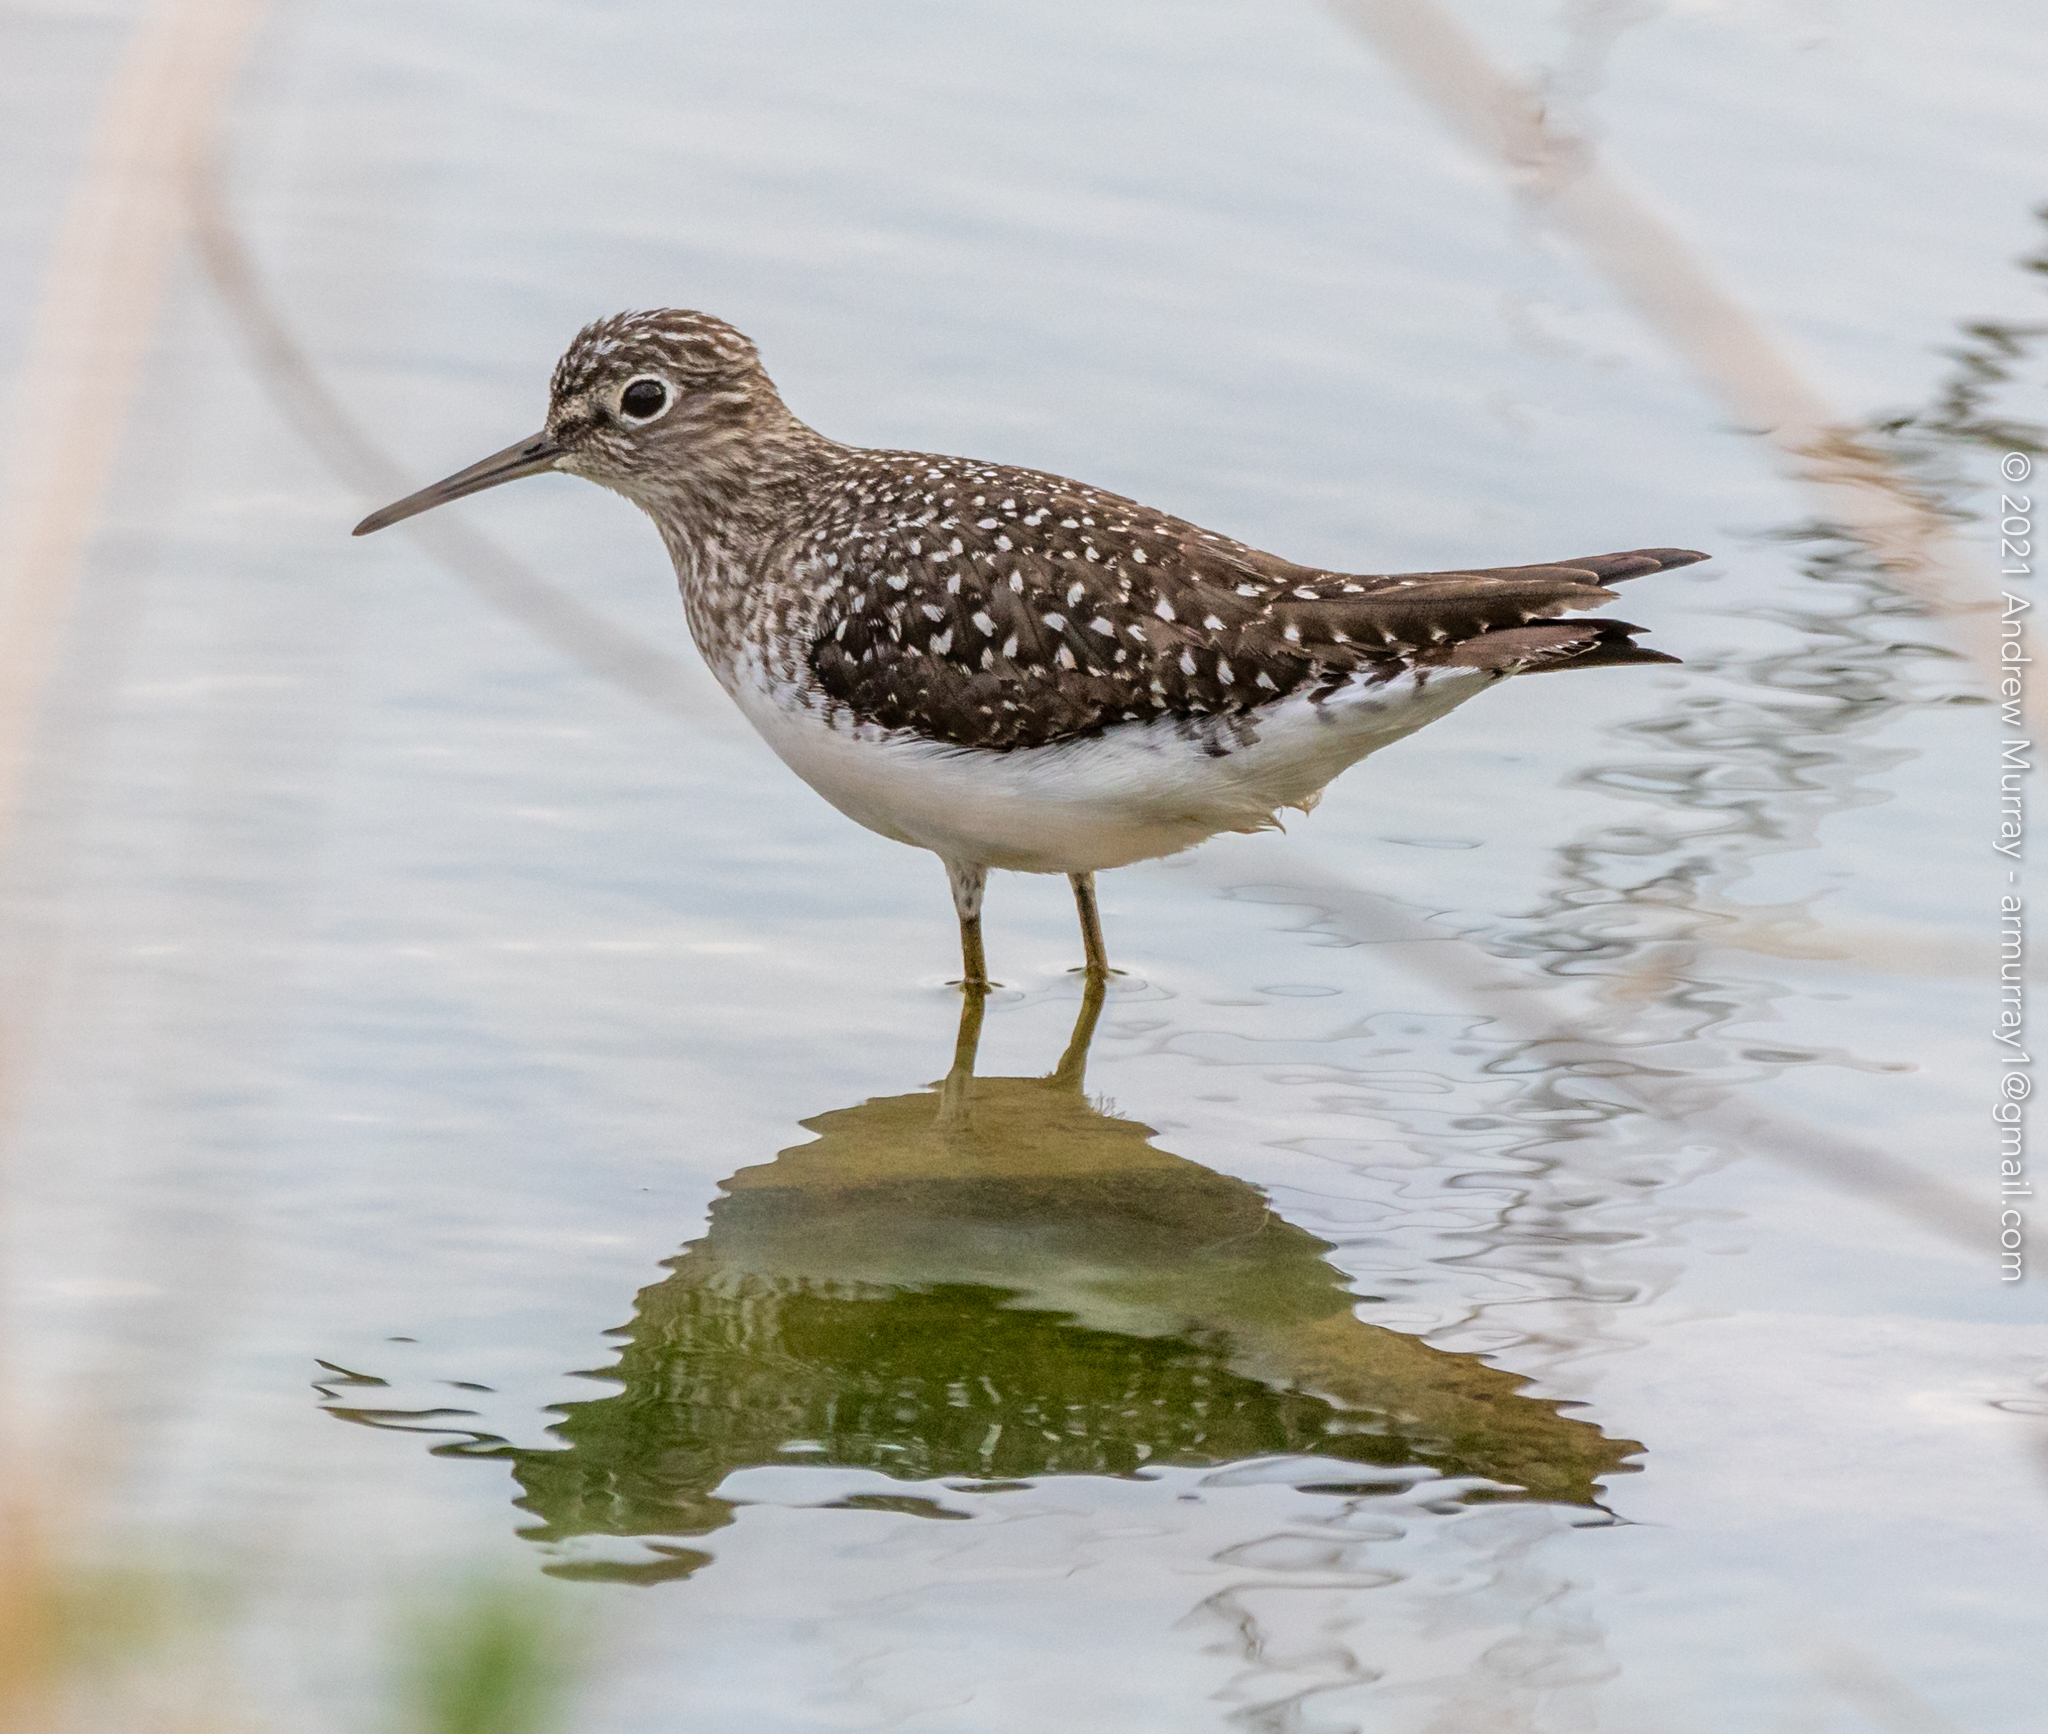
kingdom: Animalia
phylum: Chordata
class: Aves
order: Charadriiformes
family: Scolopacidae
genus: Tringa
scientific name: Tringa solitaria
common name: Solitary sandpiper
